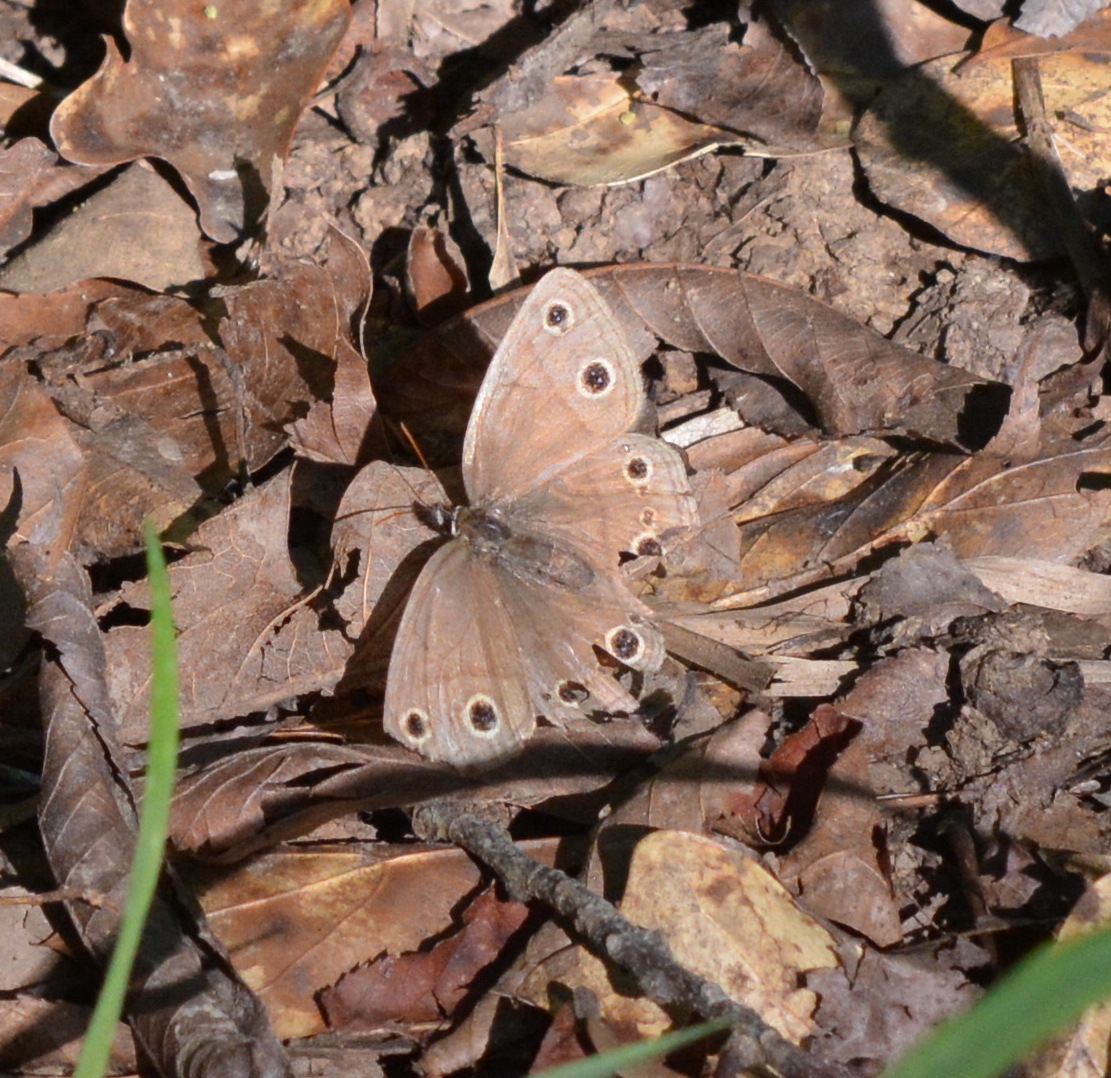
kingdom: Animalia
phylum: Arthropoda
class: Insecta
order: Lepidoptera
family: Nymphalidae
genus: Euptychia
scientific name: Euptychia cymela
